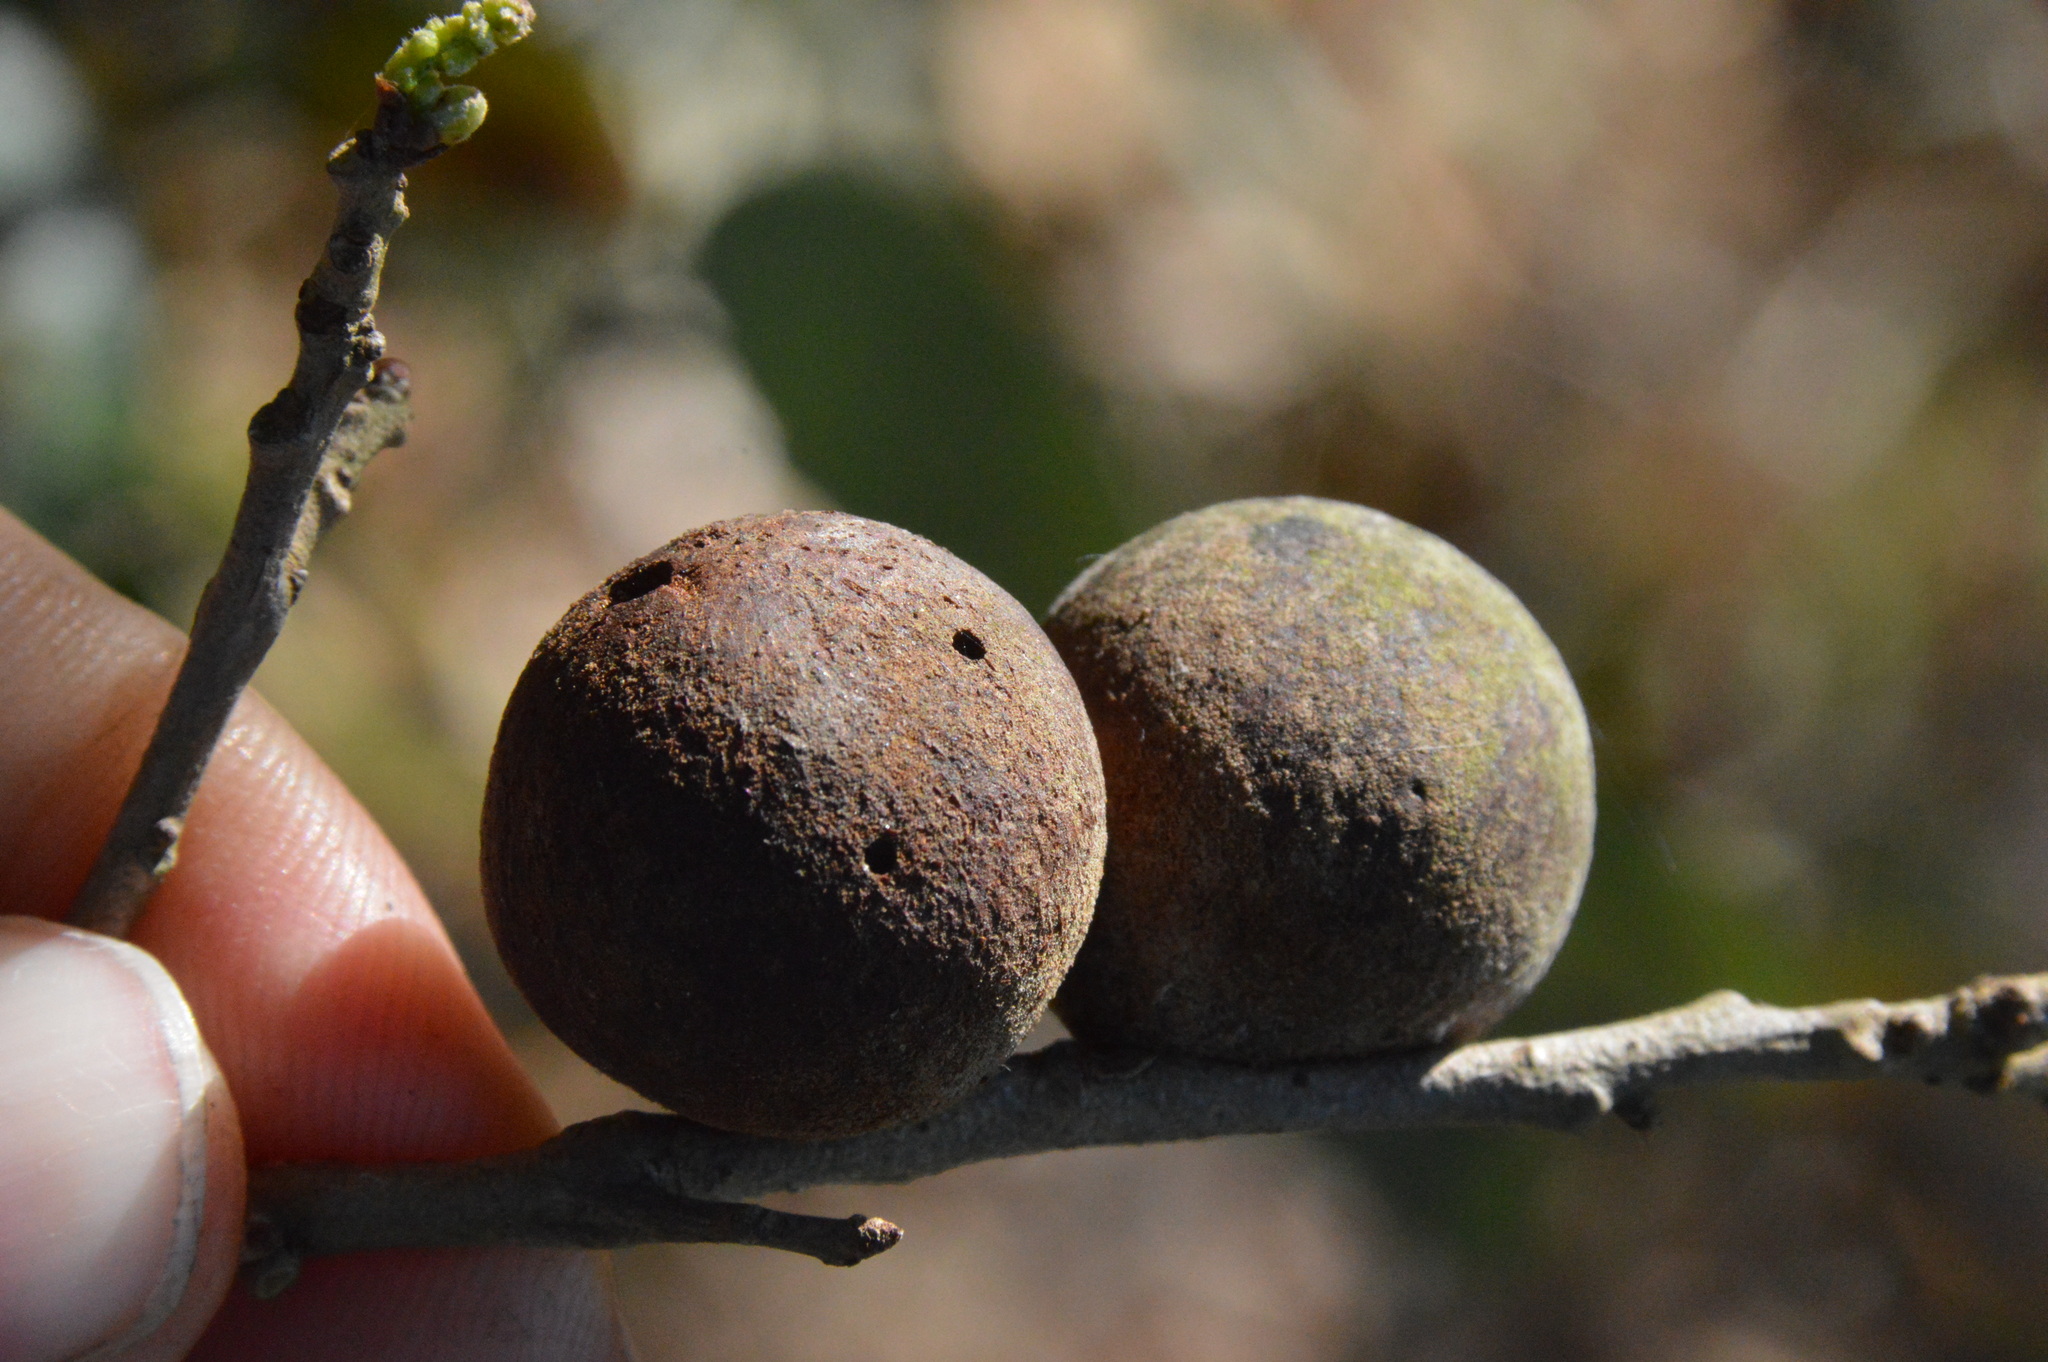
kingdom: Animalia
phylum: Arthropoda
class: Insecta
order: Hymenoptera
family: Cynipidae
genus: Disholcaspis
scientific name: Disholcaspis
